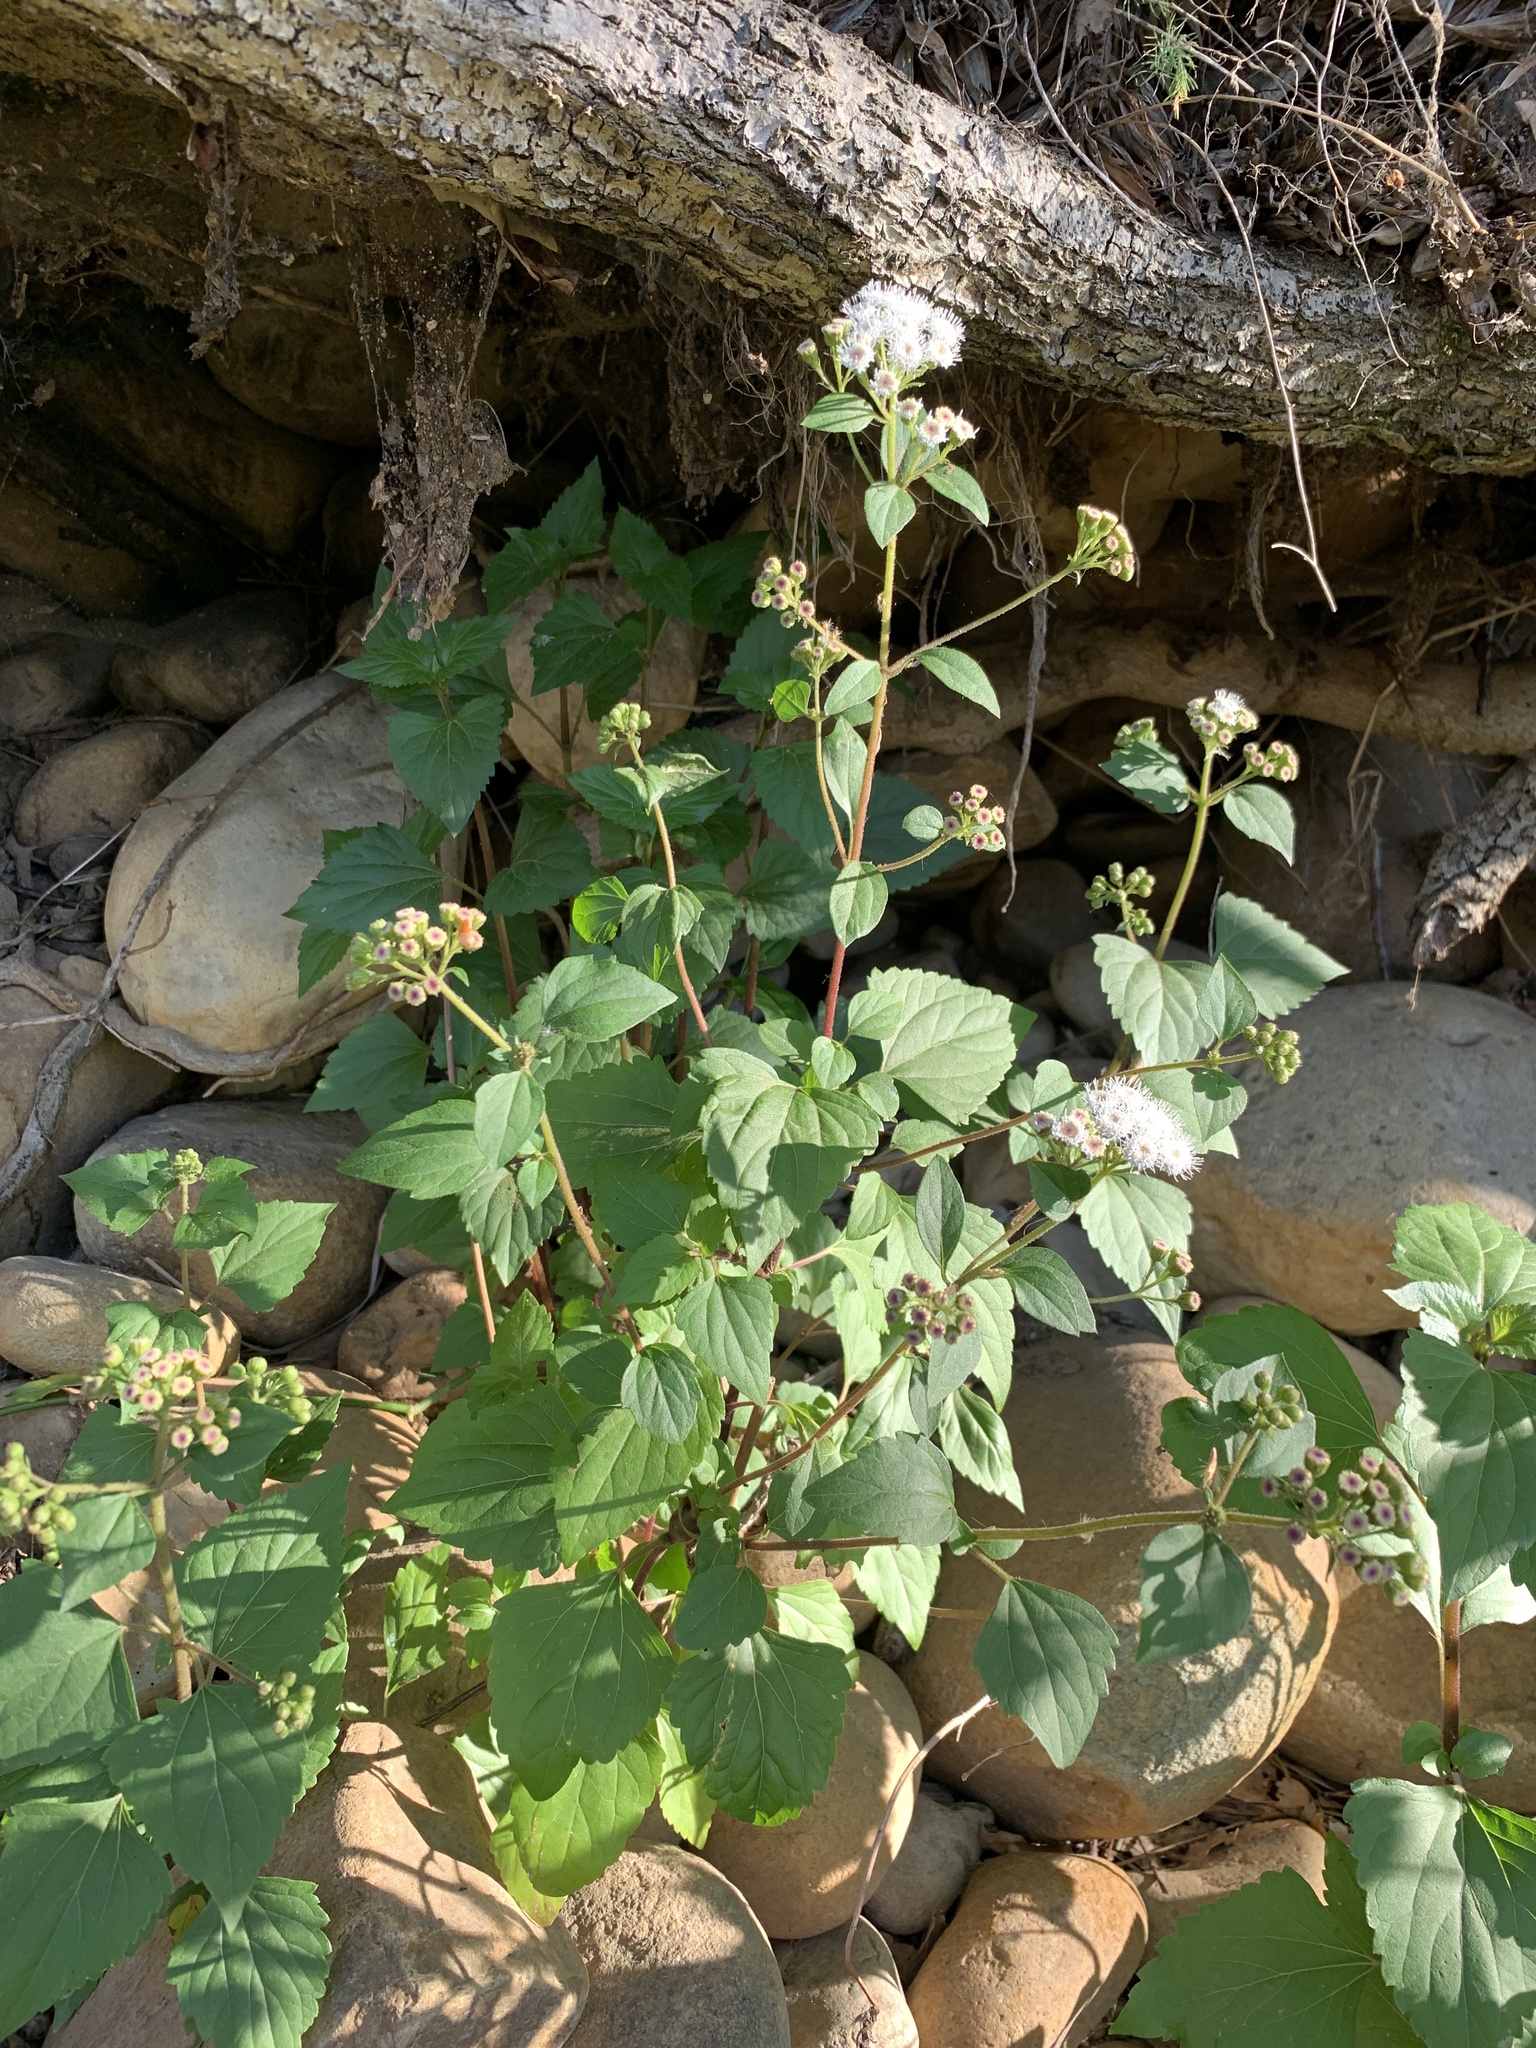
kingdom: Plantae
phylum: Tracheophyta
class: Magnoliopsida
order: Asterales
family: Asteraceae
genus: Ageratina
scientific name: Ageratina adenophora
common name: Sticky snakeroot
